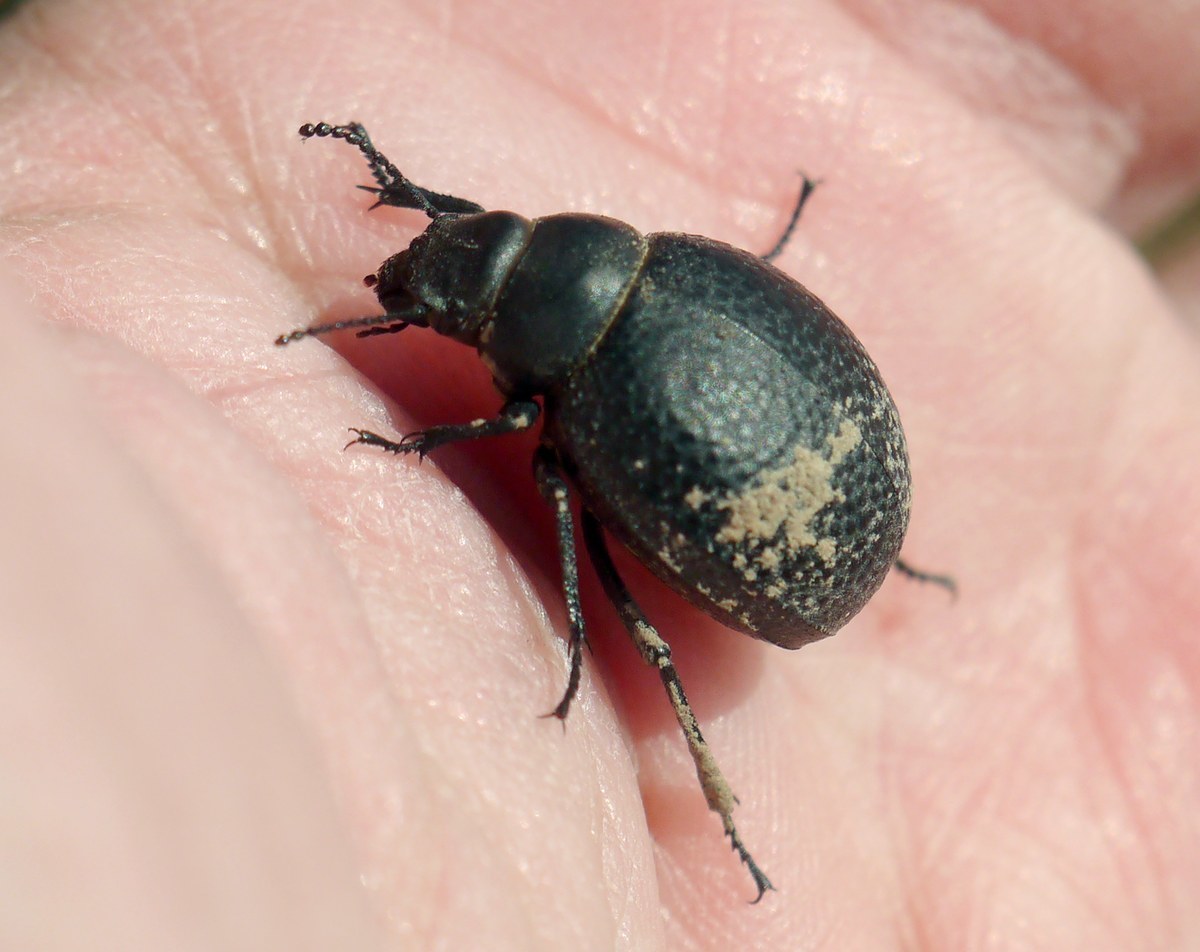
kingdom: Animalia
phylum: Arthropoda
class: Insecta
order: Coleoptera
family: Tenebrionidae
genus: Pimelia
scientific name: Pimelia subglobosa
